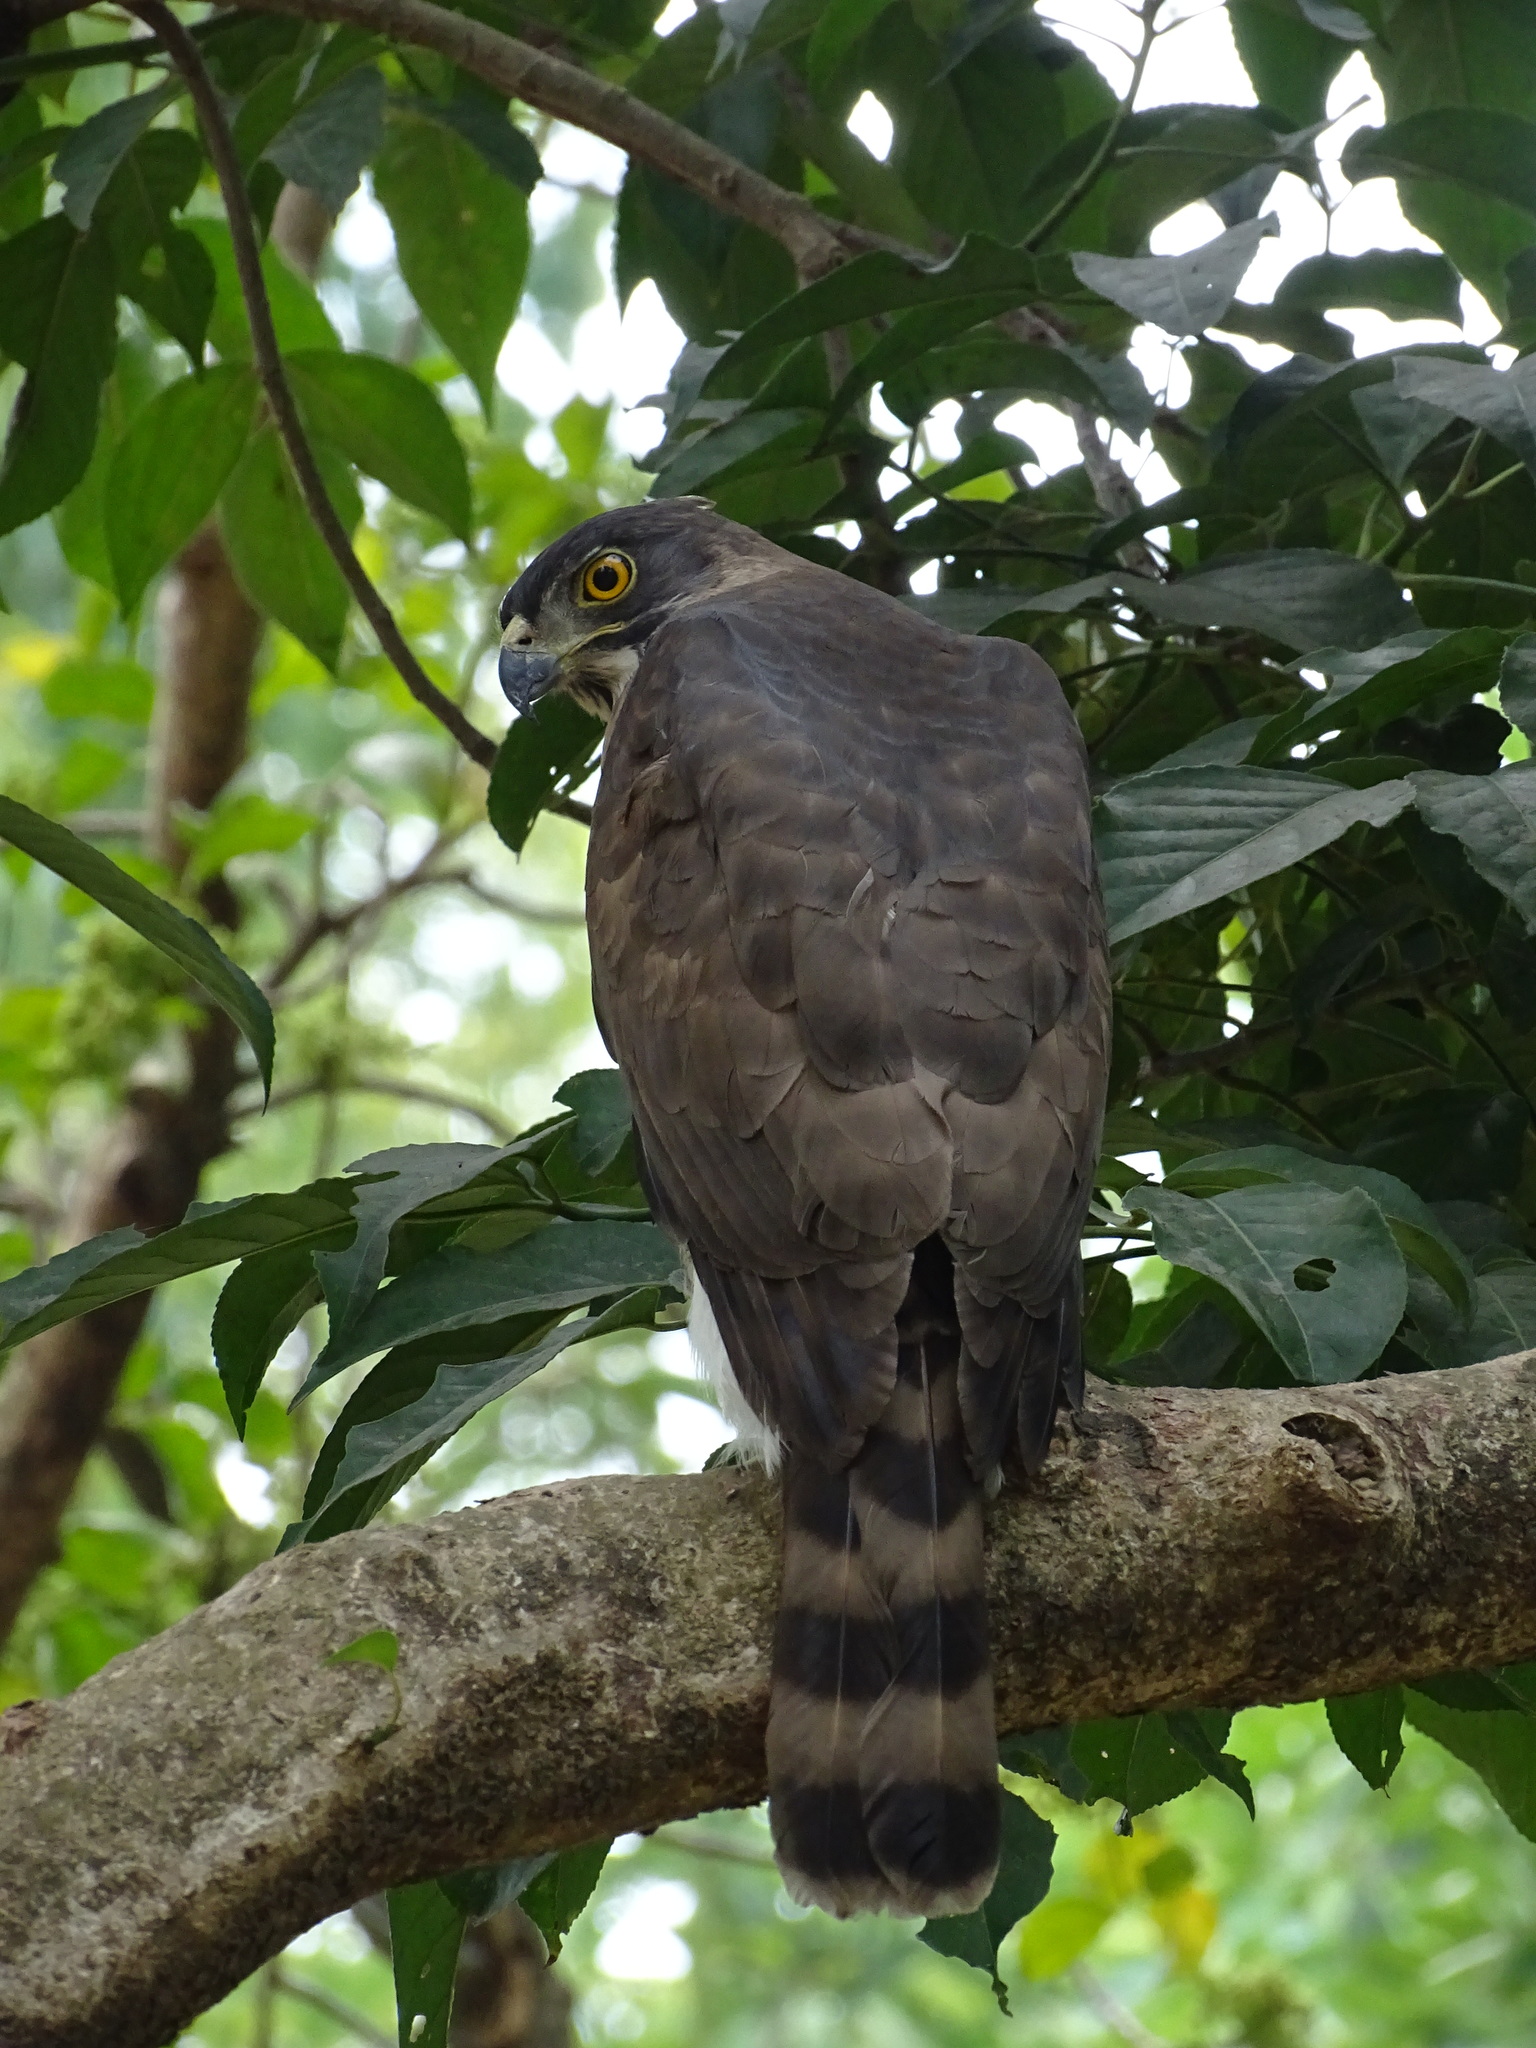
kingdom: Animalia
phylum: Chordata
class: Aves
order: Accipitriformes
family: Accipitridae
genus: Accipiter
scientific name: Accipiter trivirgatus
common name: Crested goshawk
